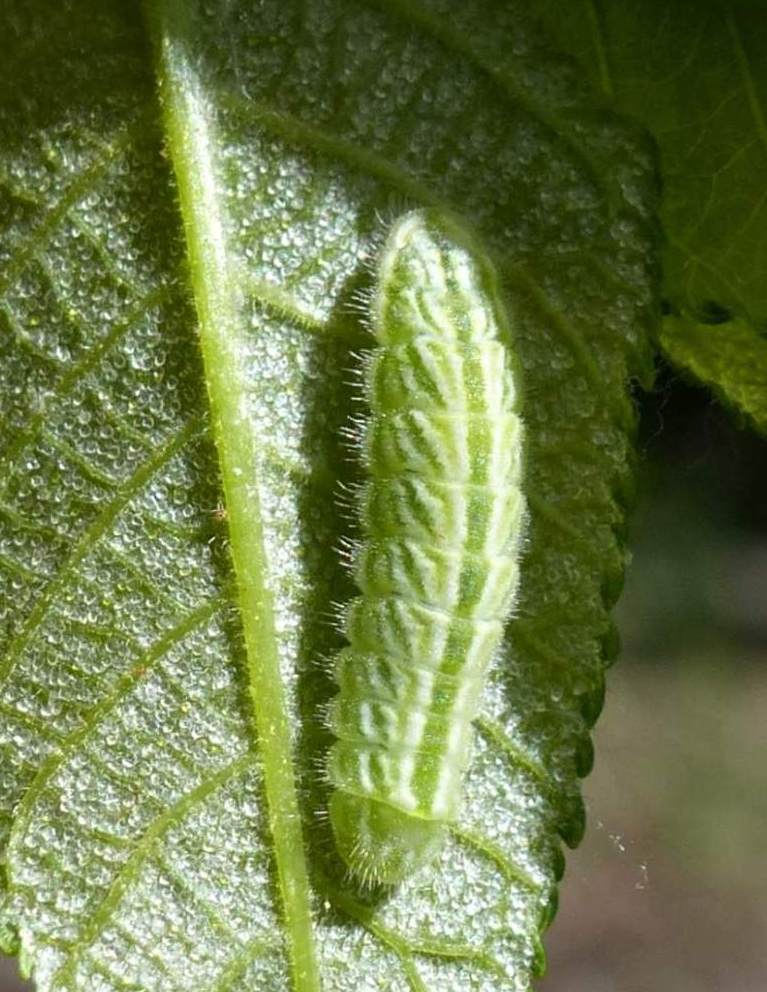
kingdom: Animalia
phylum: Arthropoda
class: Insecta
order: Lepidoptera
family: Lycaenidae
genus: Satyrium
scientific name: Satyrium calanus
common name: Banded hairstreak
